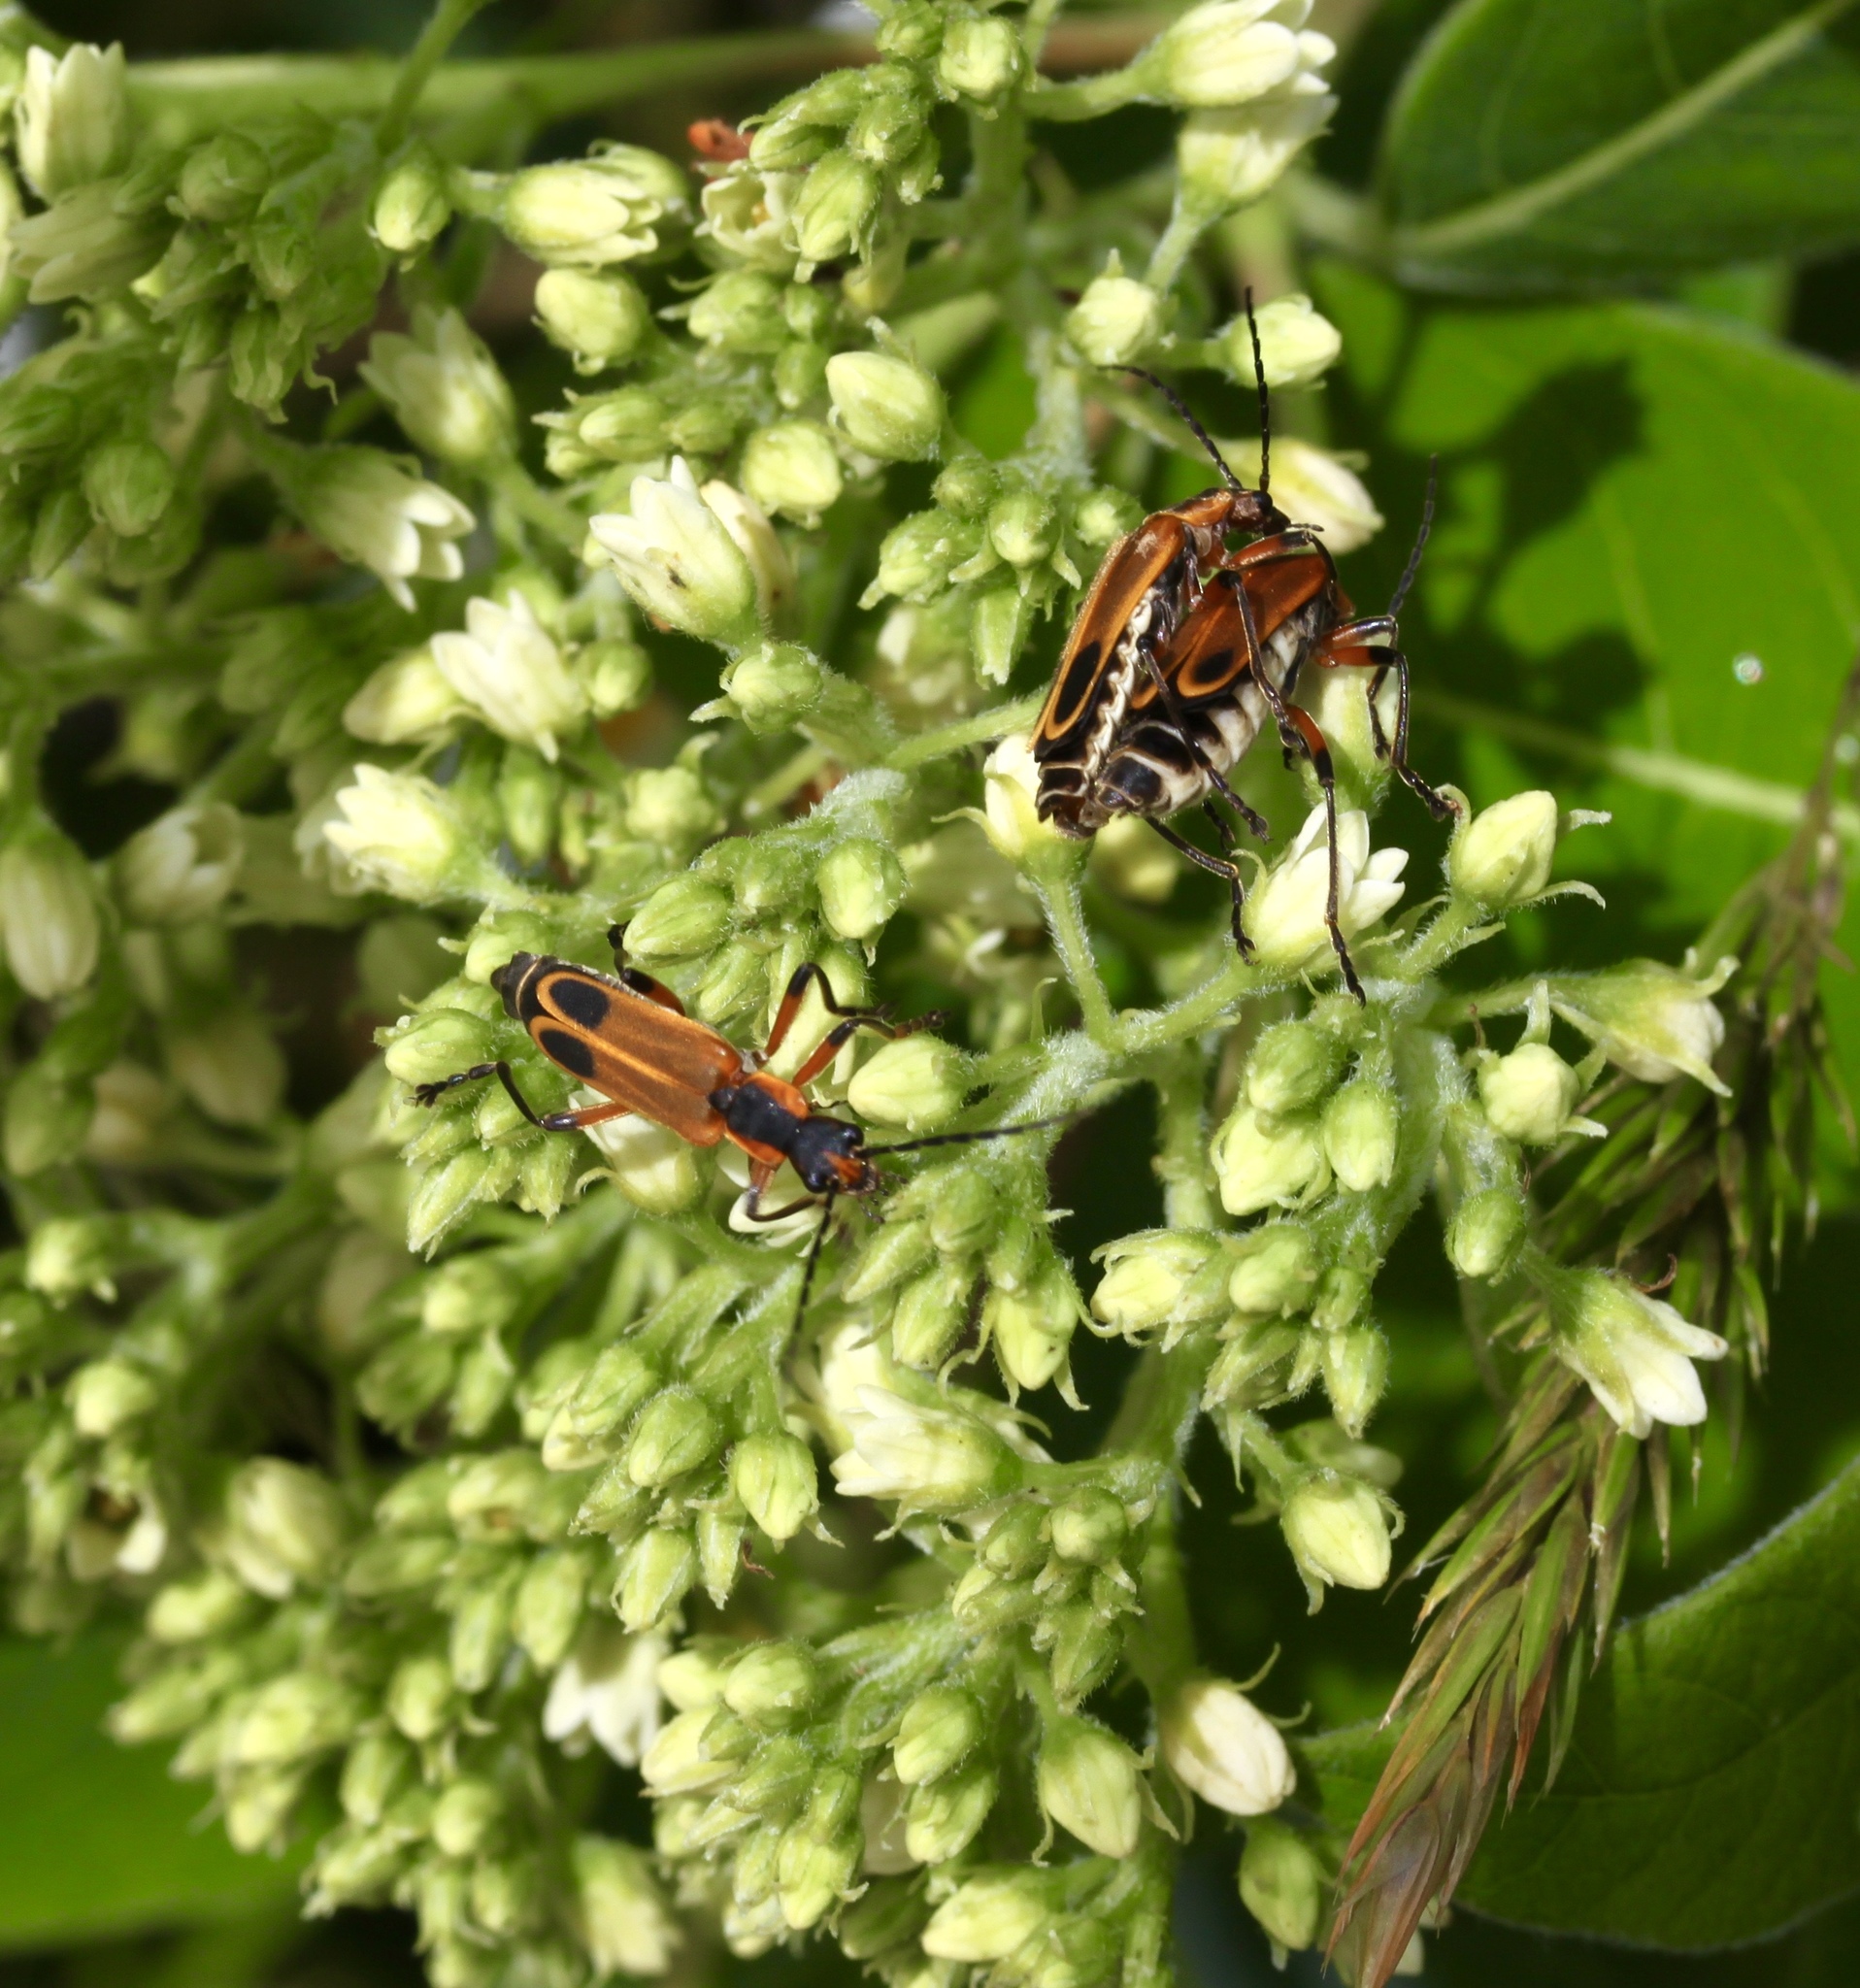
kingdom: Animalia
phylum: Arthropoda
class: Insecta
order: Coleoptera
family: Cantharidae
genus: Chauliognathus
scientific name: Chauliognathus marginatus
